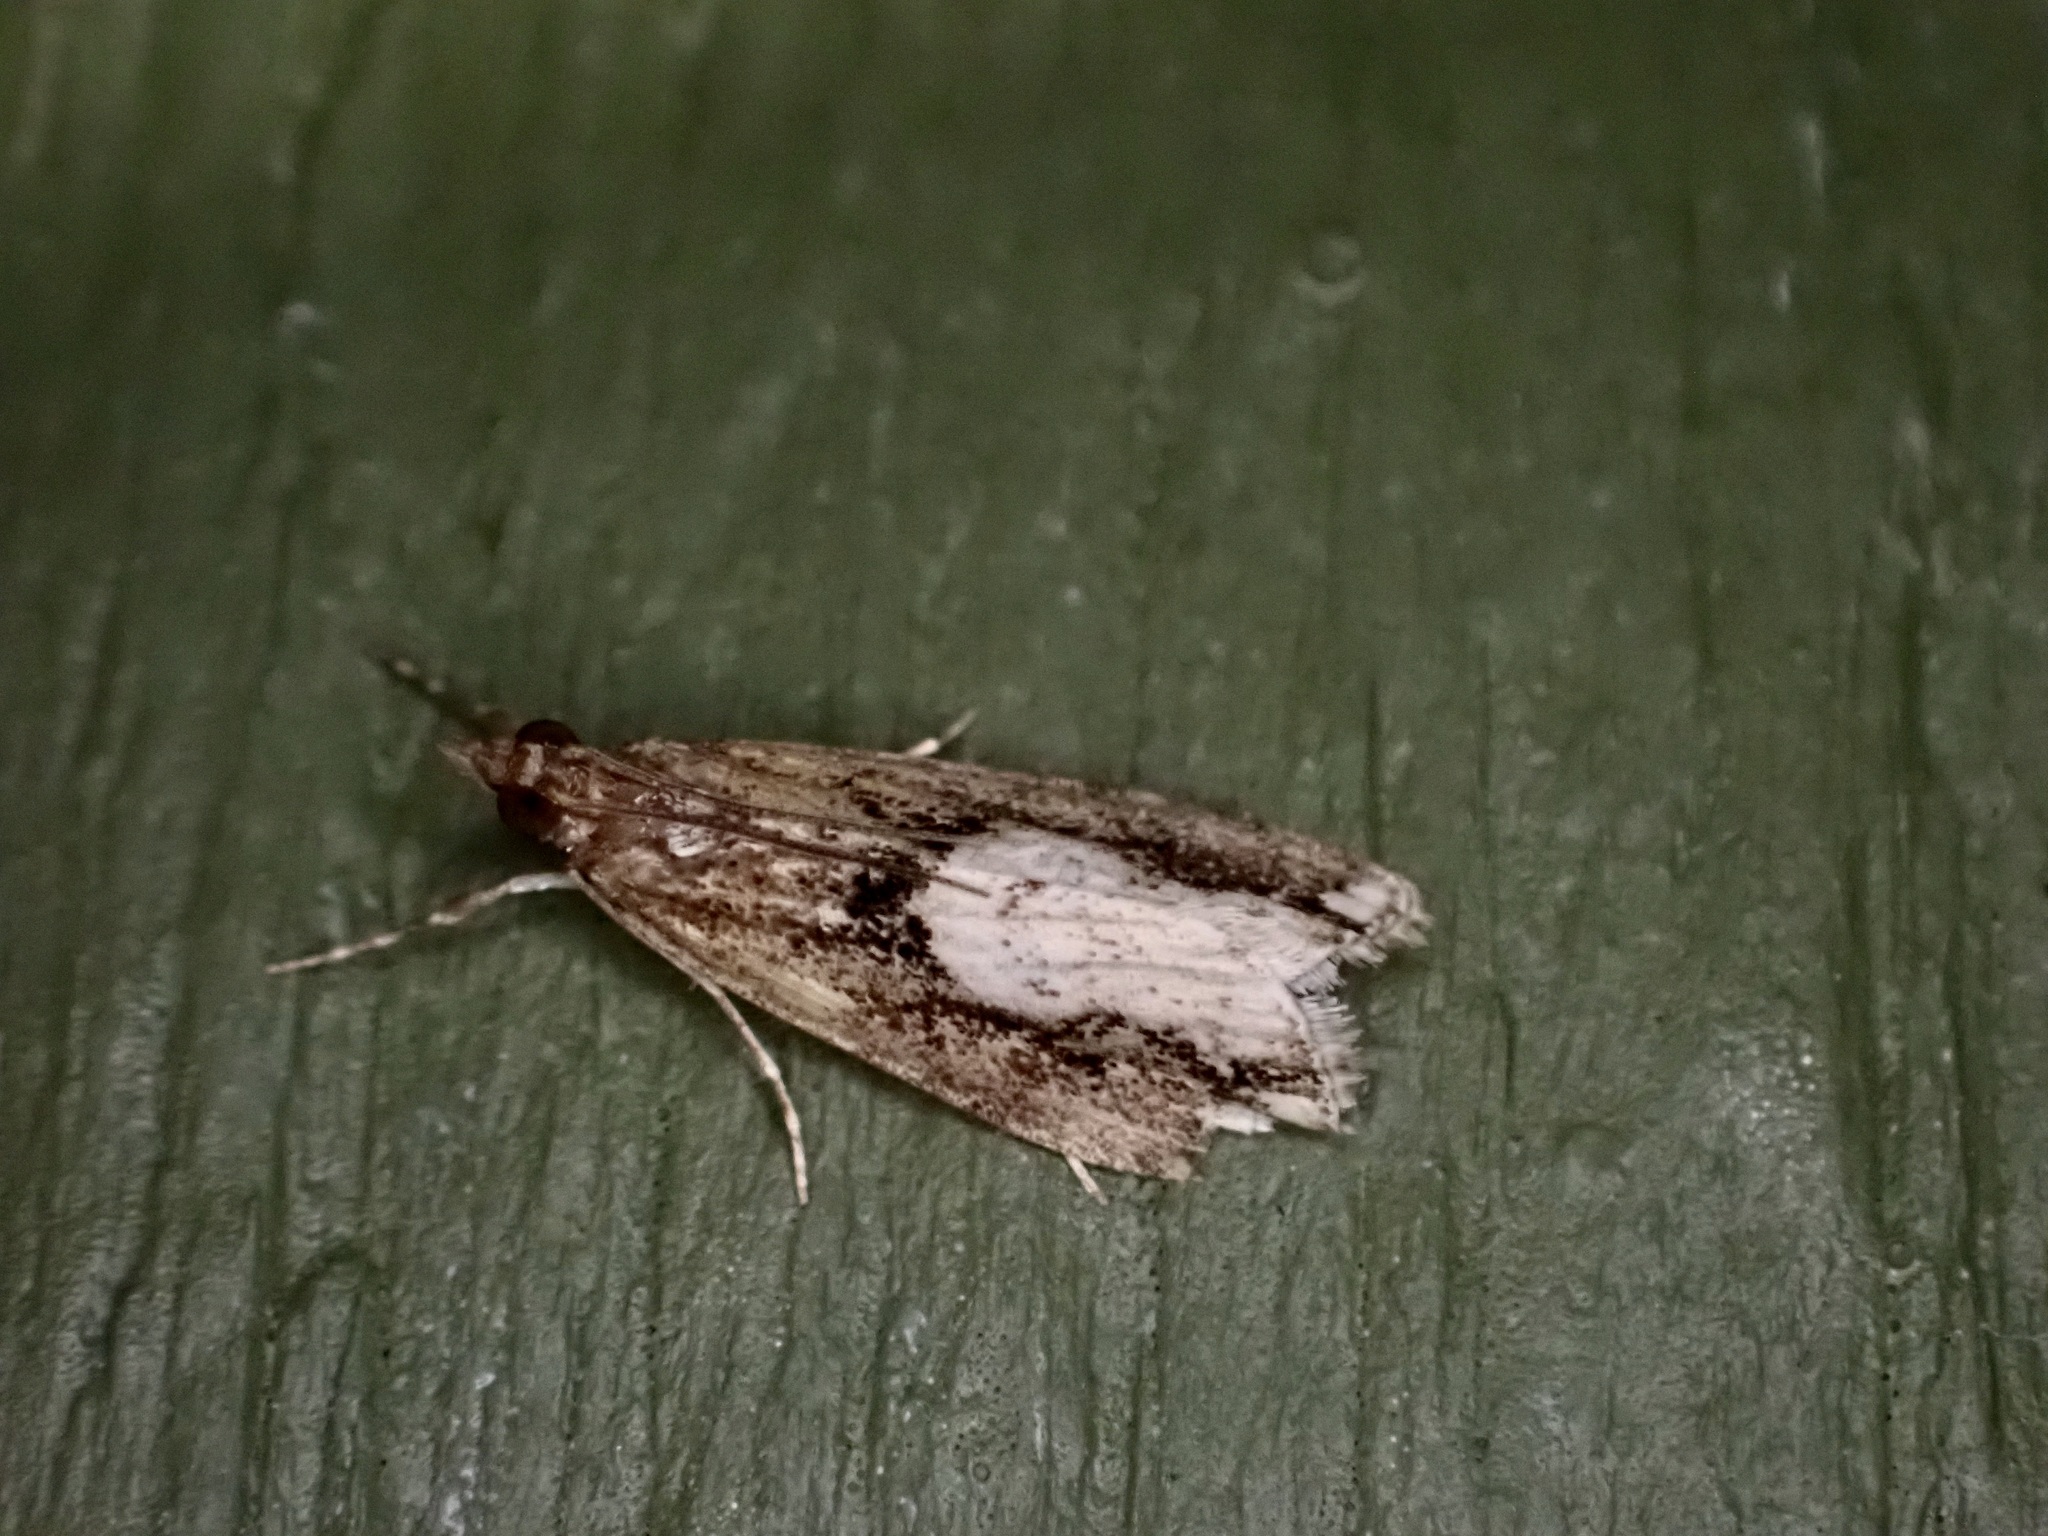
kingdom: Animalia
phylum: Arthropoda
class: Insecta
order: Lepidoptera
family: Crambidae
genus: Eudonia
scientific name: Eudonia hemiplaca
